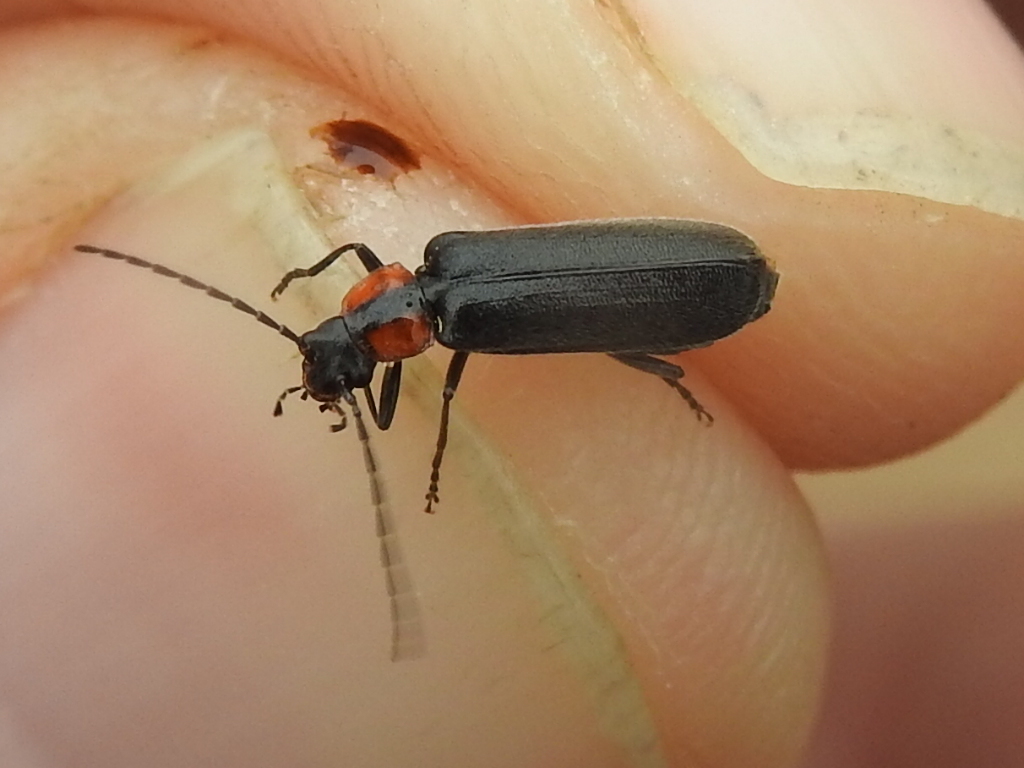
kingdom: Animalia
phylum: Arthropoda
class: Insecta
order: Coleoptera
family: Cantharidae
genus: Rhagonycha
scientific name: Rhagonycha lineola
